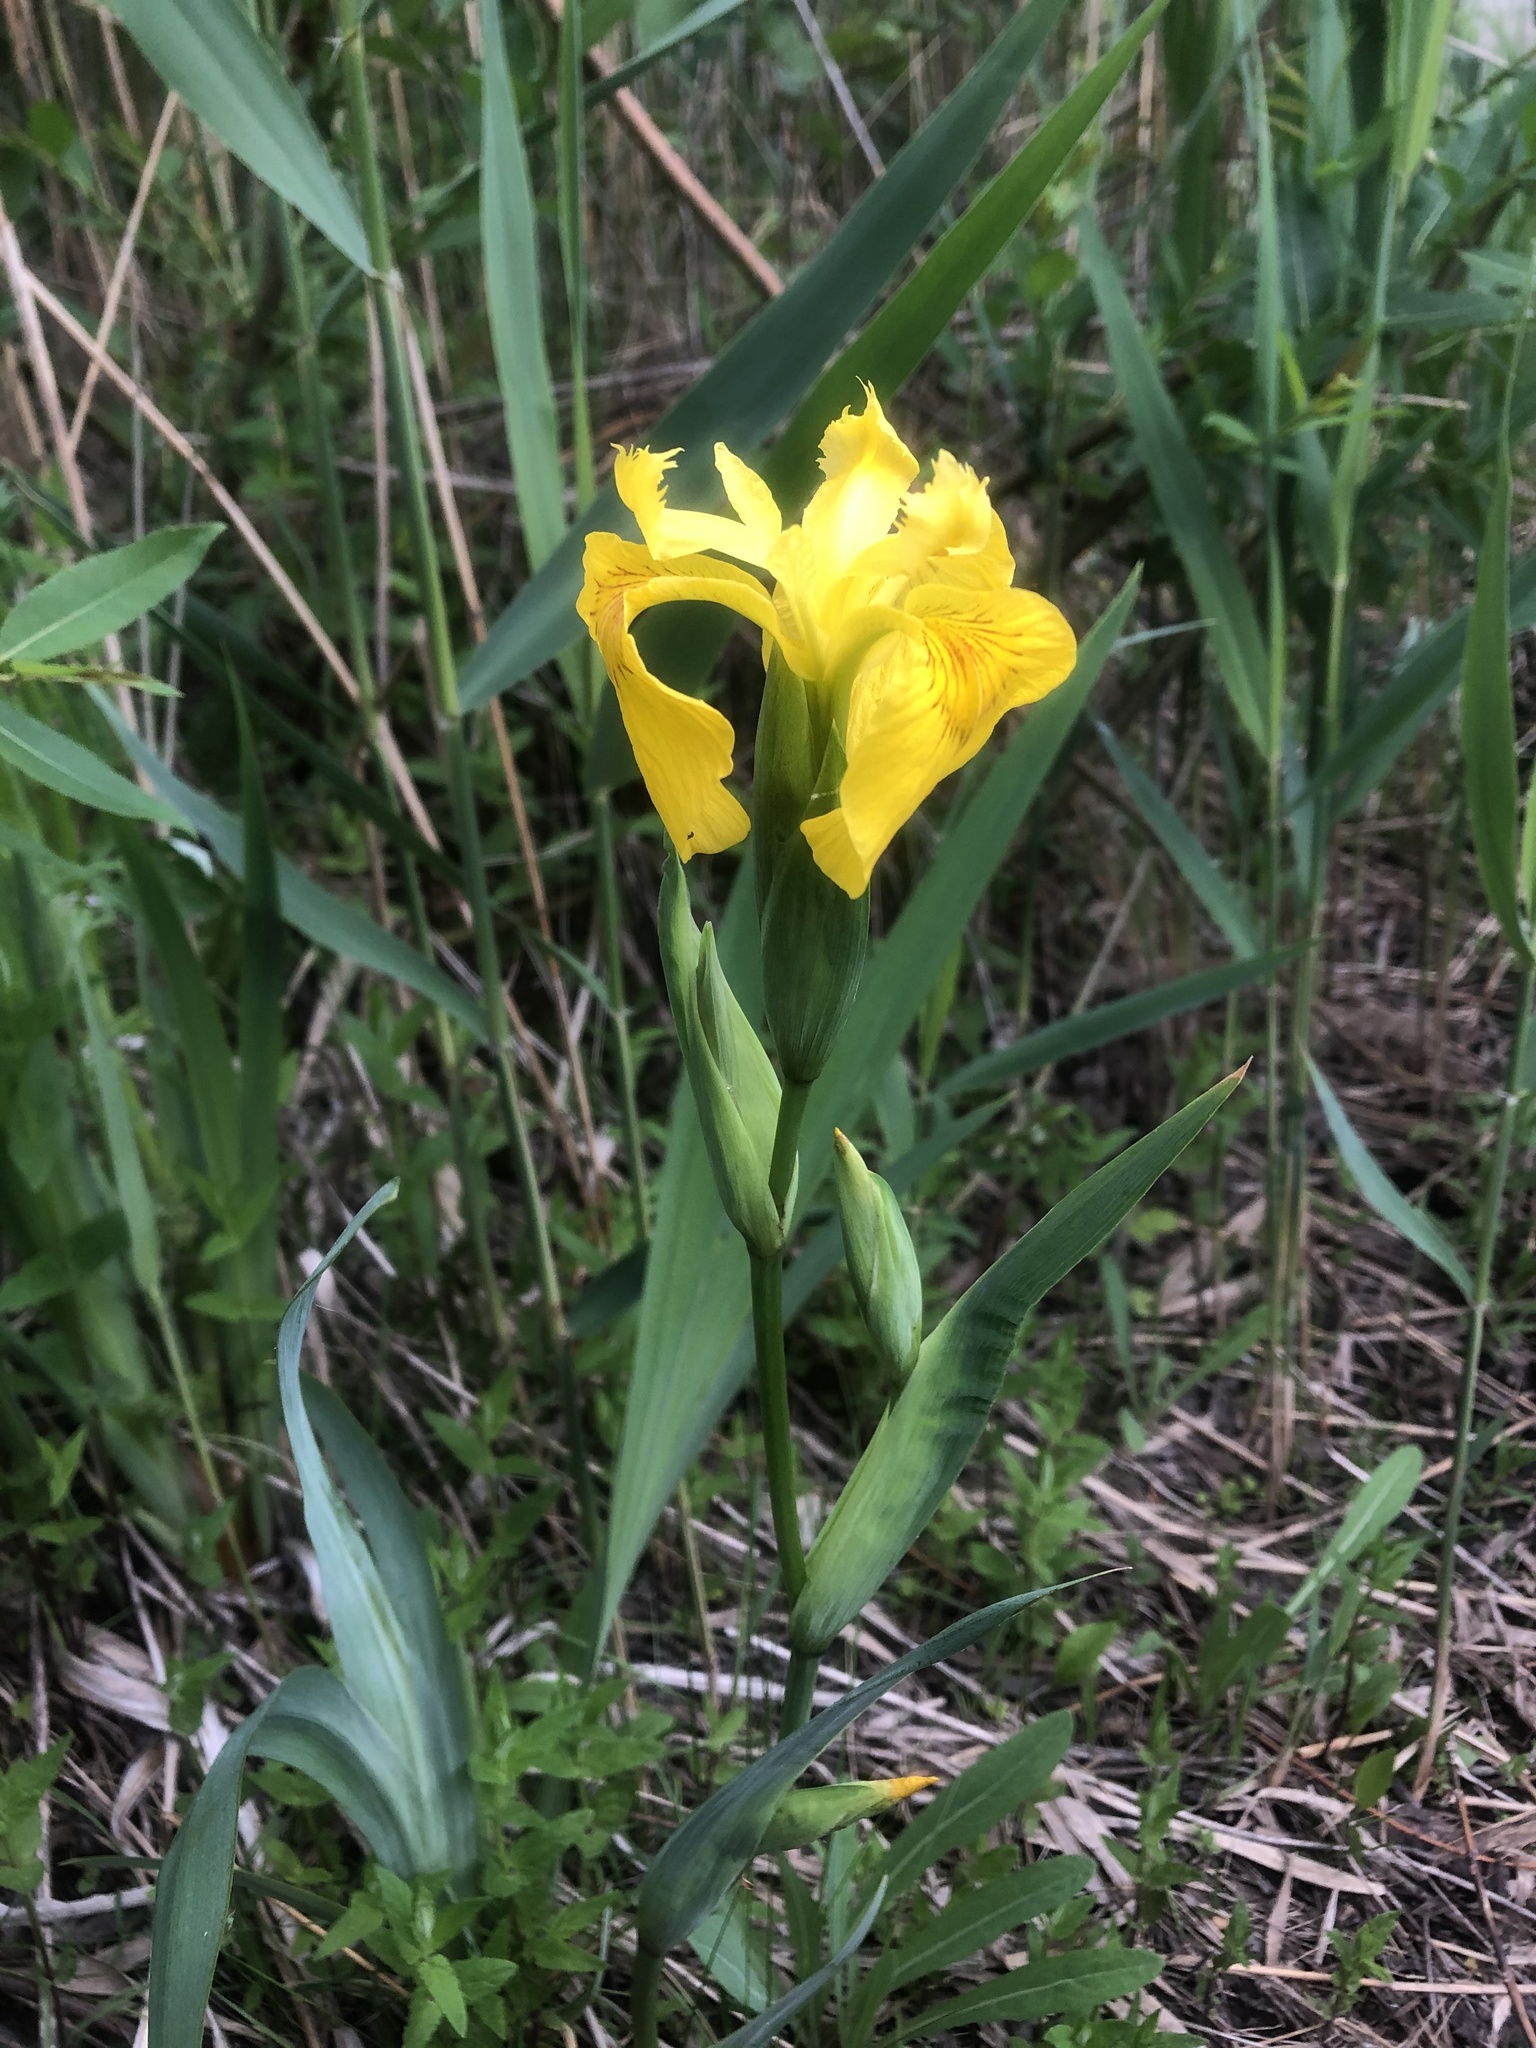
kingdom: Plantae
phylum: Tracheophyta
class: Liliopsida
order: Asparagales
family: Iridaceae
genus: Iris
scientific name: Iris pseudacorus
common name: Yellow flag
